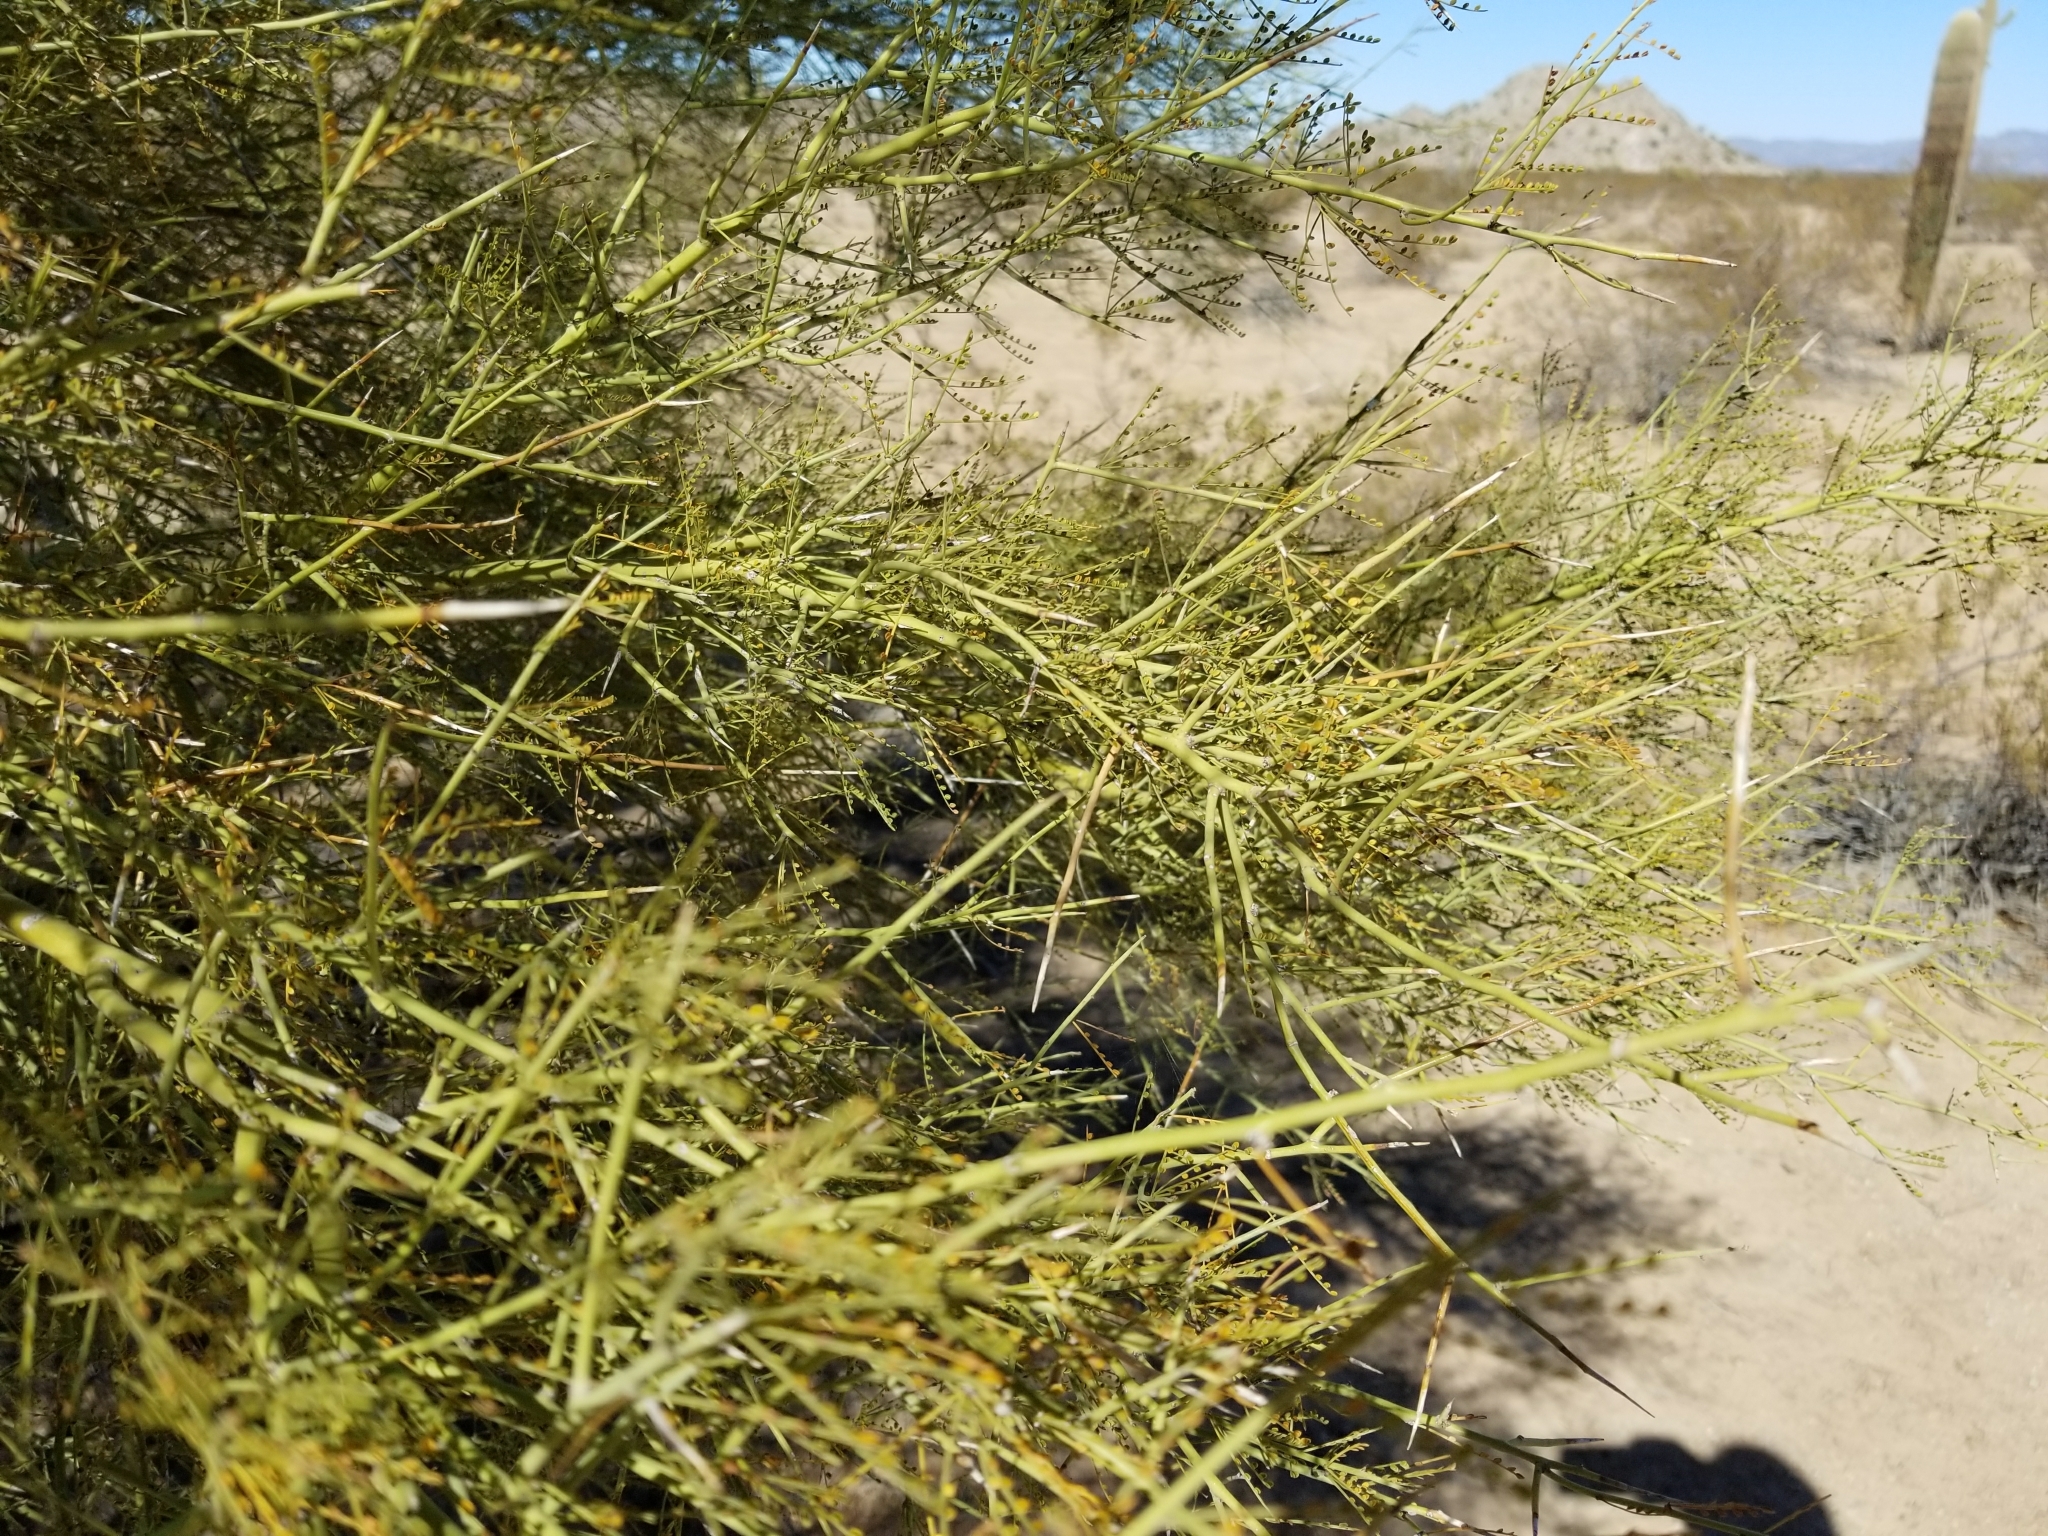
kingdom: Plantae
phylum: Tracheophyta
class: Magnoliopsida
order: Fabales
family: Fabaceae
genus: Parkinsonia
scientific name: Parkinsonia microphylla
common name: Yellow paloverde
